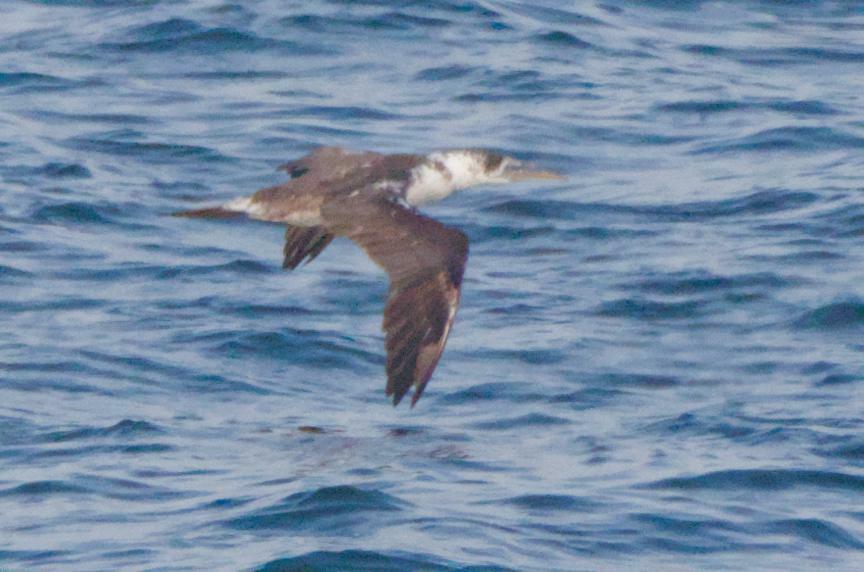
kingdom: Animalia
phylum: Chordata
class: Aves
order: Suliformes
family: Sulidae
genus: Morus
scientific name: Morus bassanus
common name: Northern gannet
